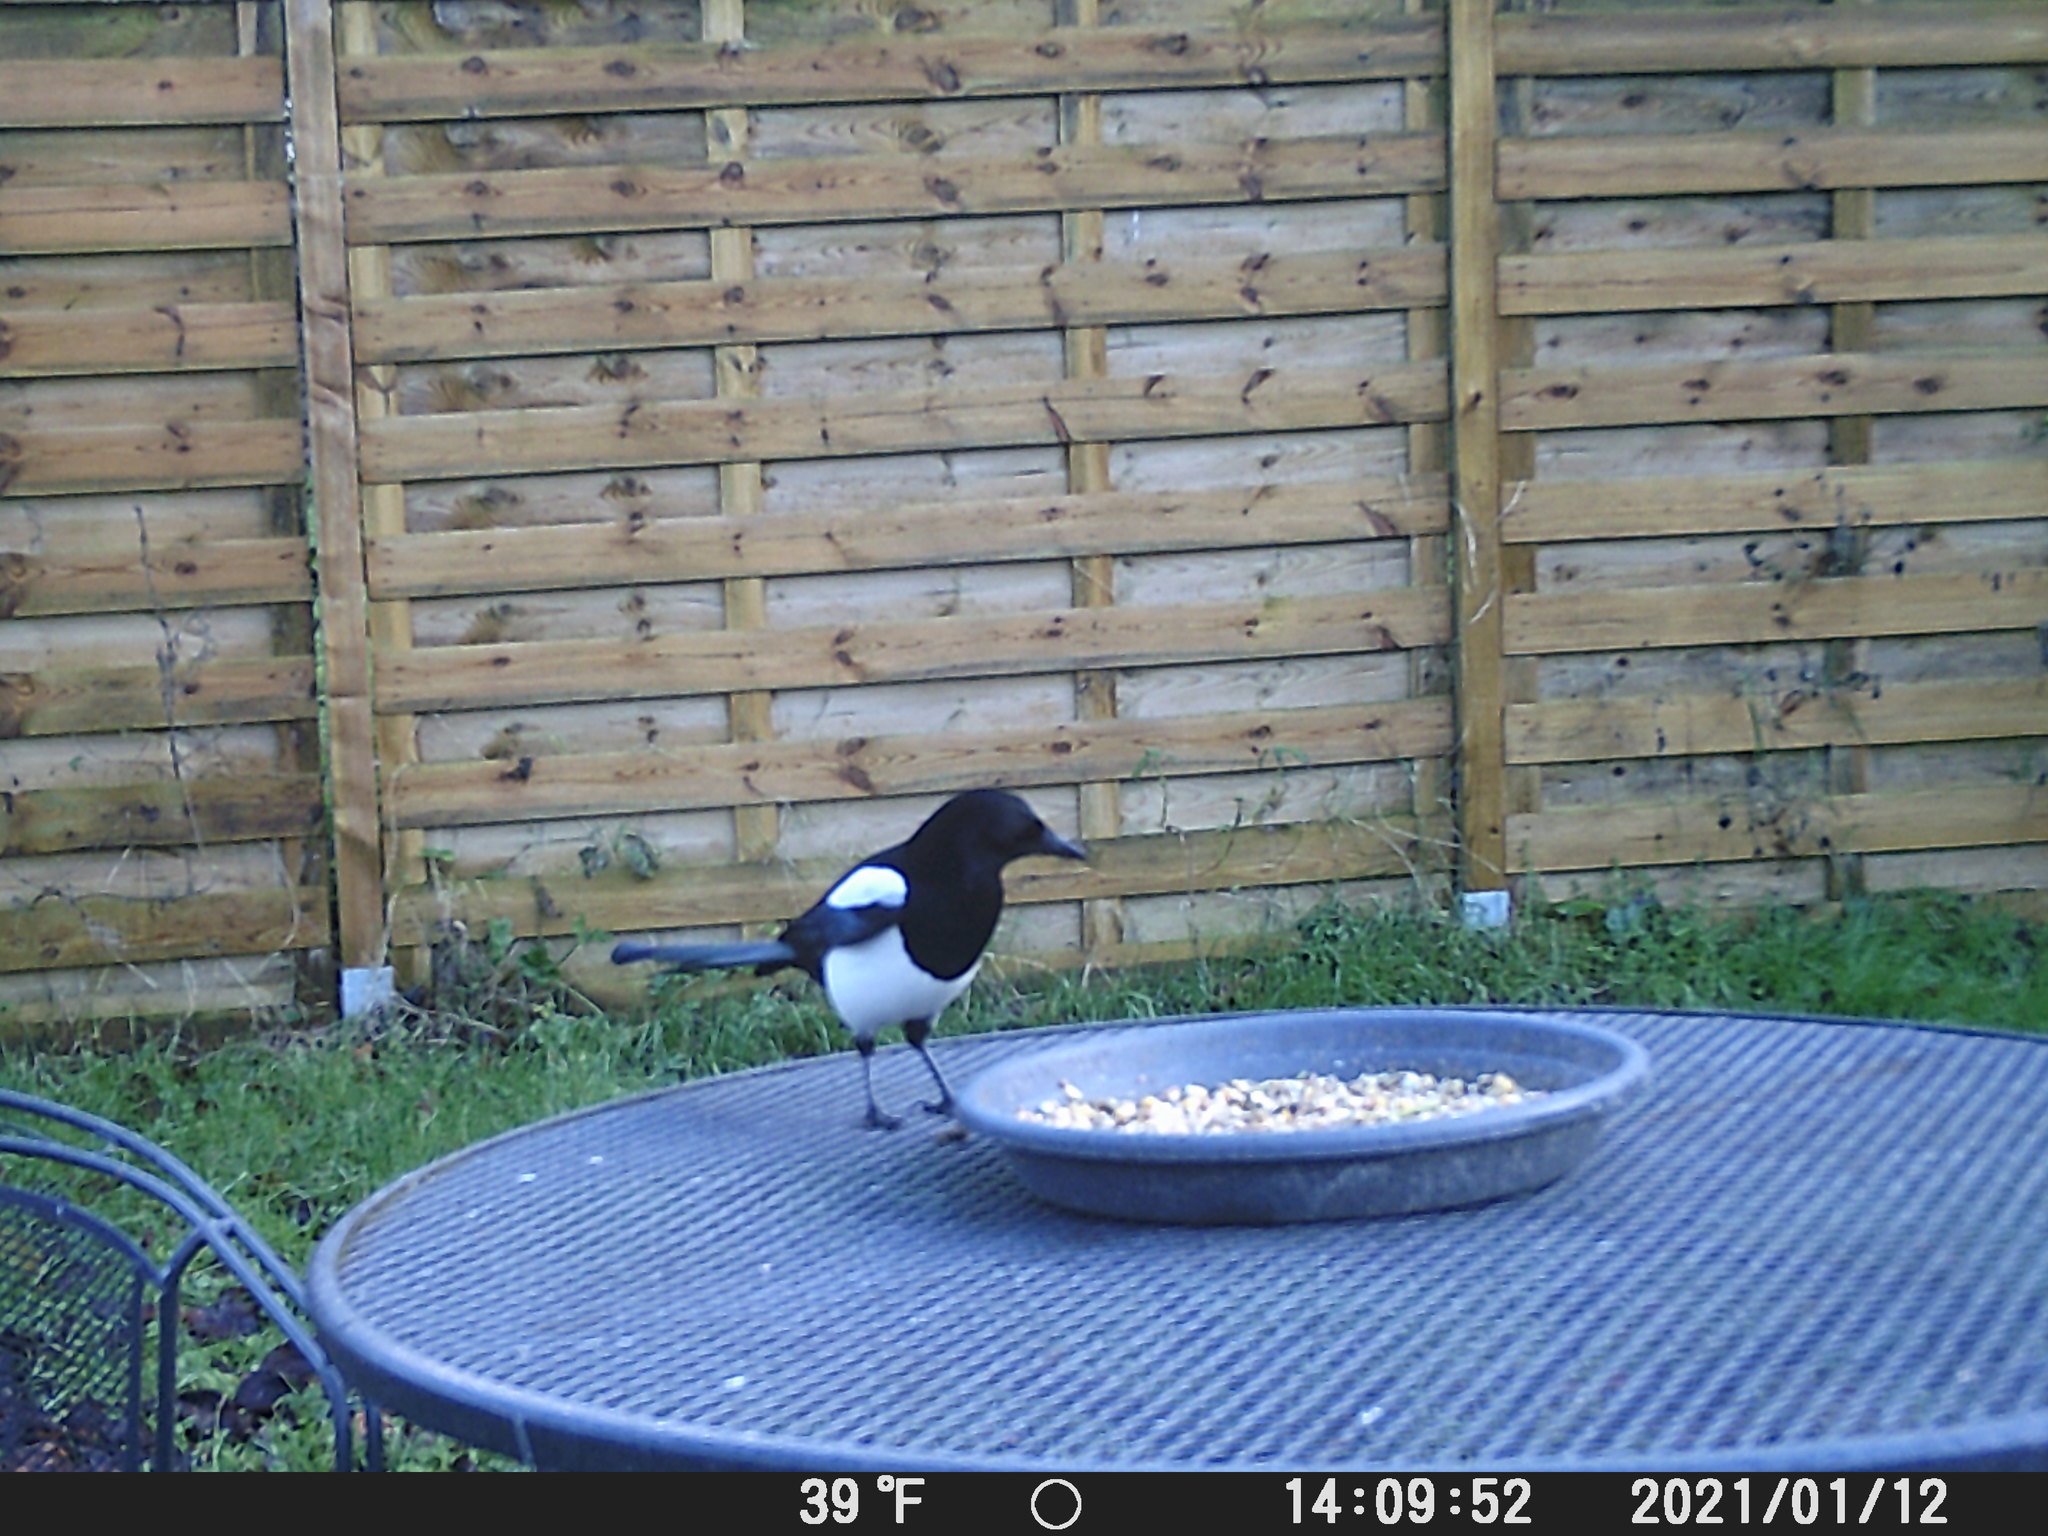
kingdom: Animalia
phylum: Chordata
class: Aves
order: Passeriformes
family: Corvidae
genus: Pica
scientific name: Pica pica
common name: Eurasian magpie
